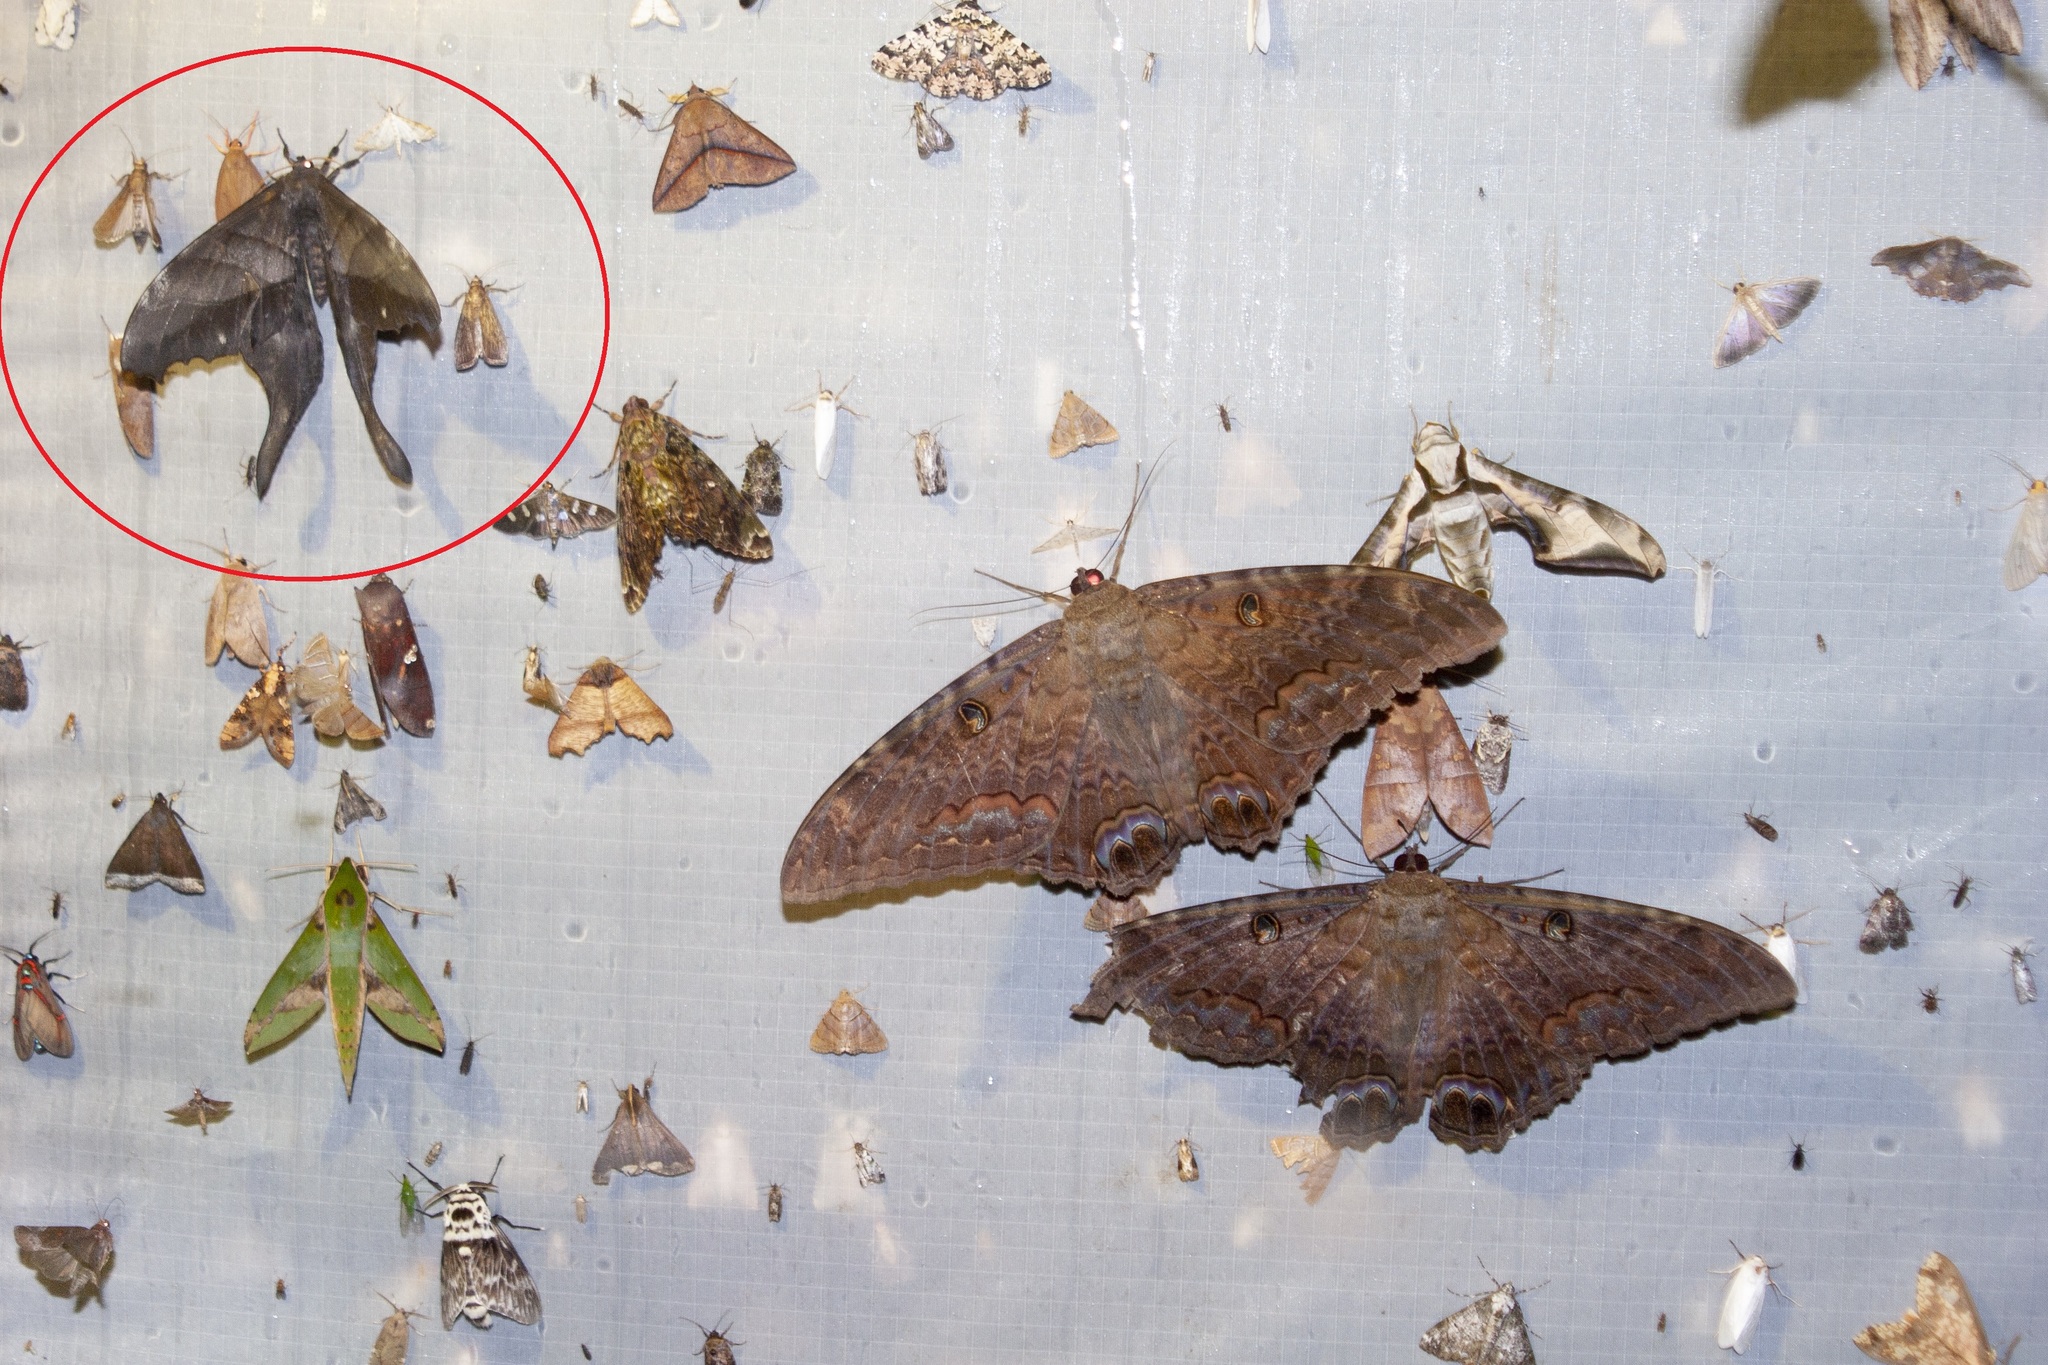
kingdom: Animalia
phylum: Arthropoda
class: Insecta
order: Lepidoptera
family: Saturniidae
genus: Paradaemonia
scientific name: Paradaemonia samba
